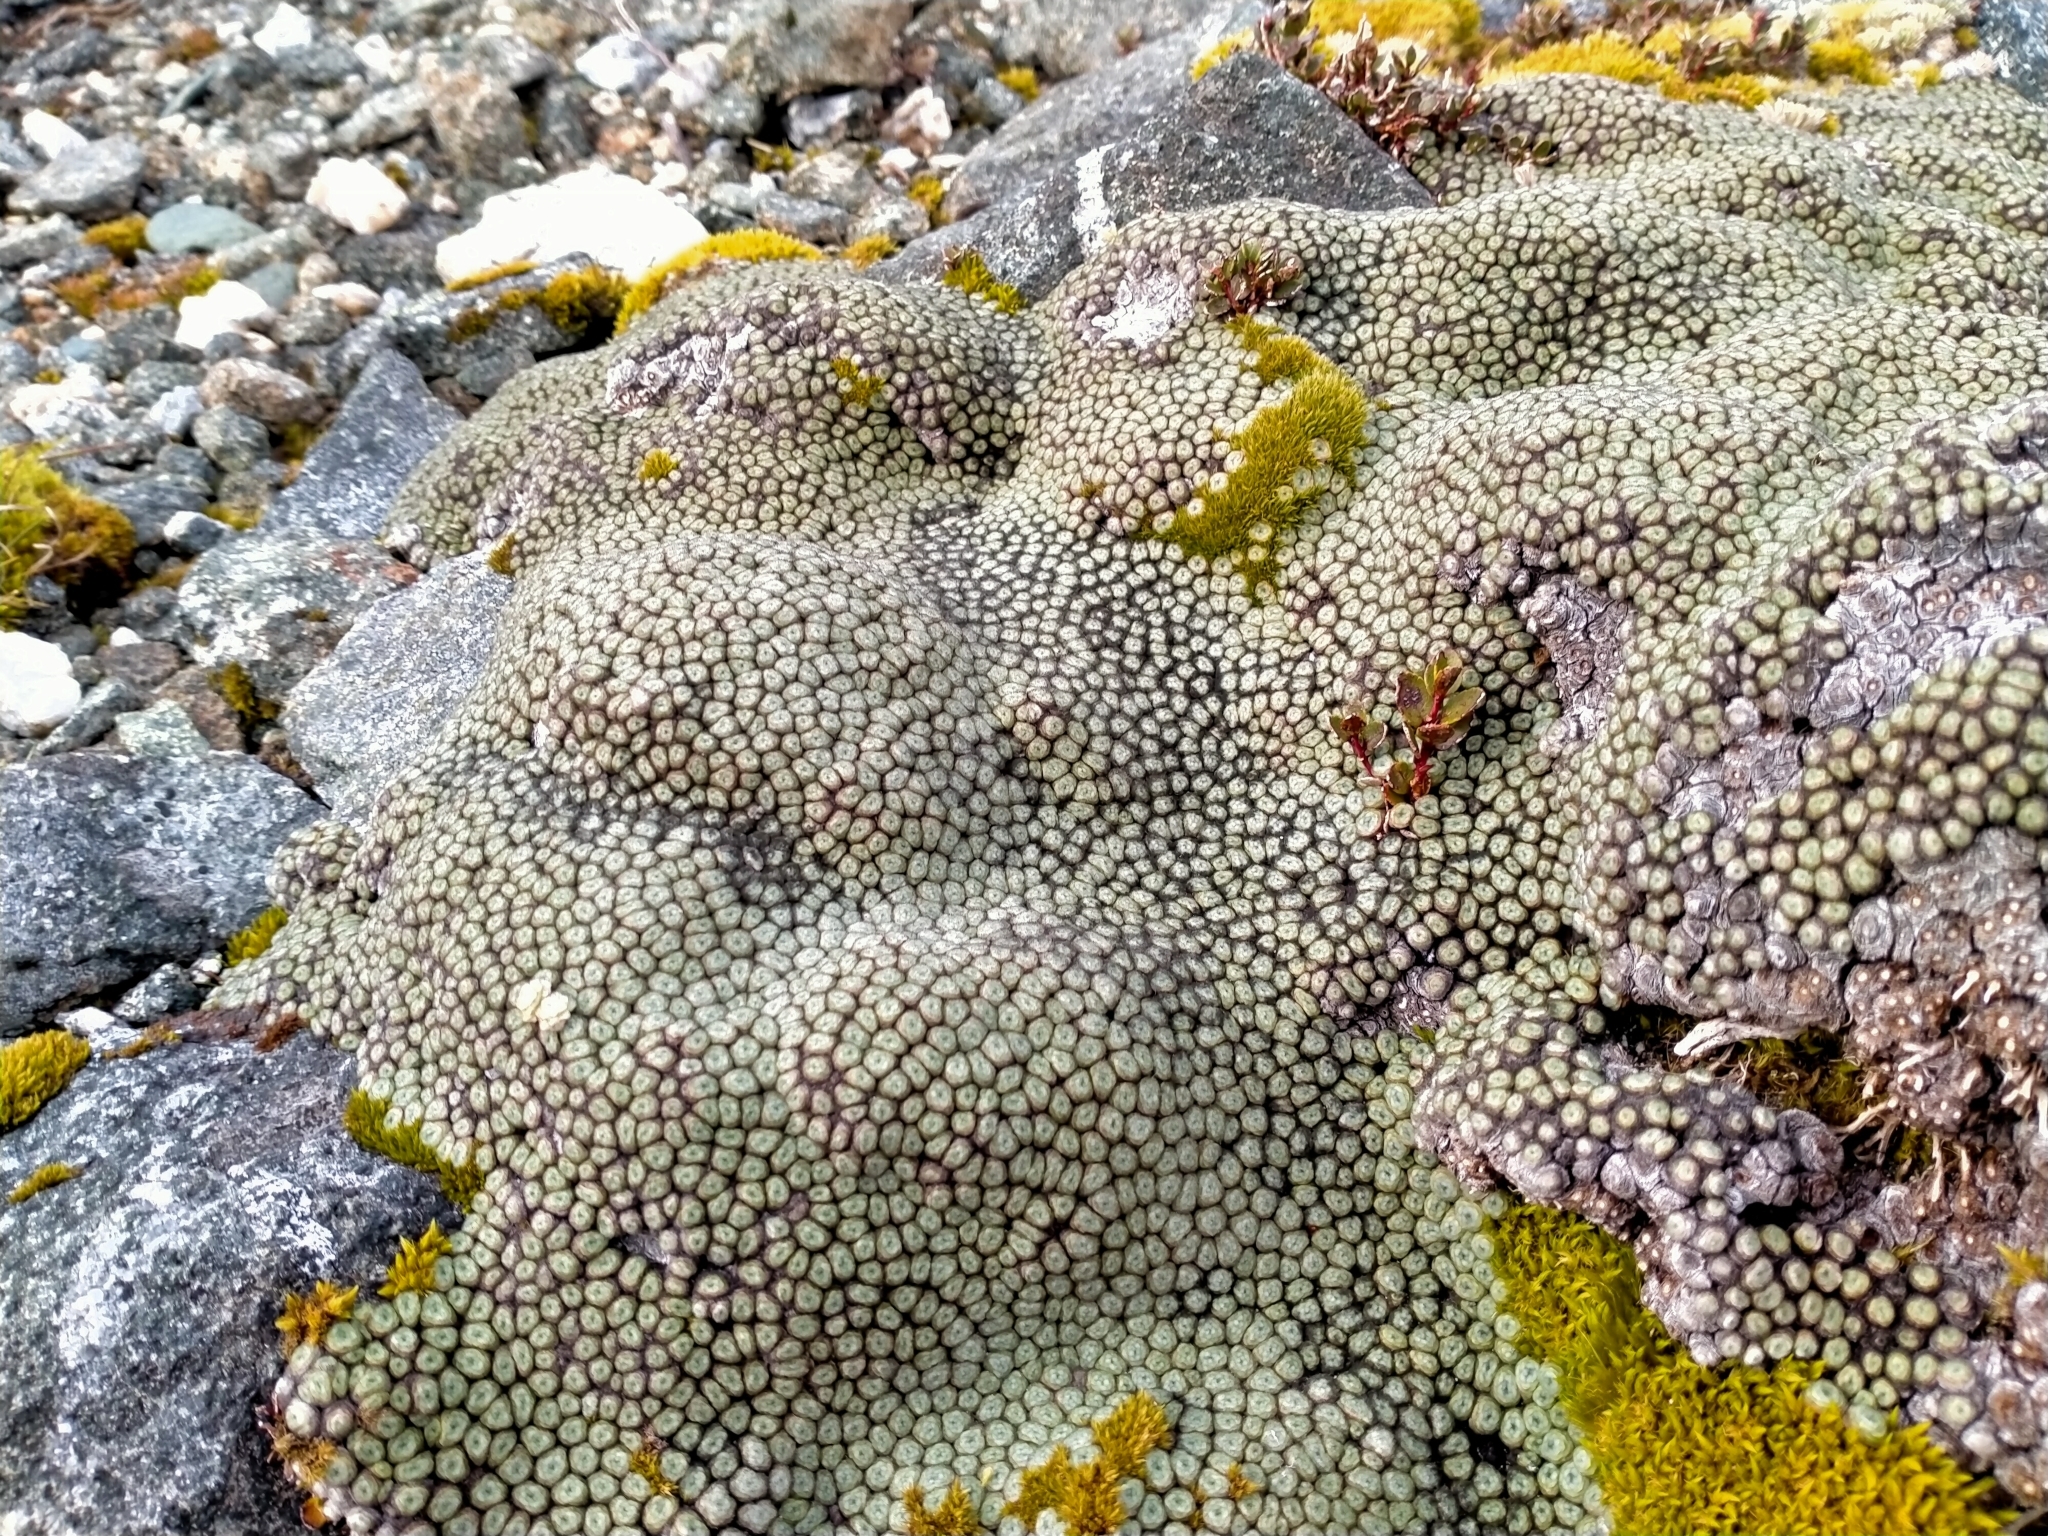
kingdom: Plantae
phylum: Tracheophyta
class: Magnoliopsida
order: Asterales
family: Asteraceae
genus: Raoulia
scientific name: Raoulia buchananii
